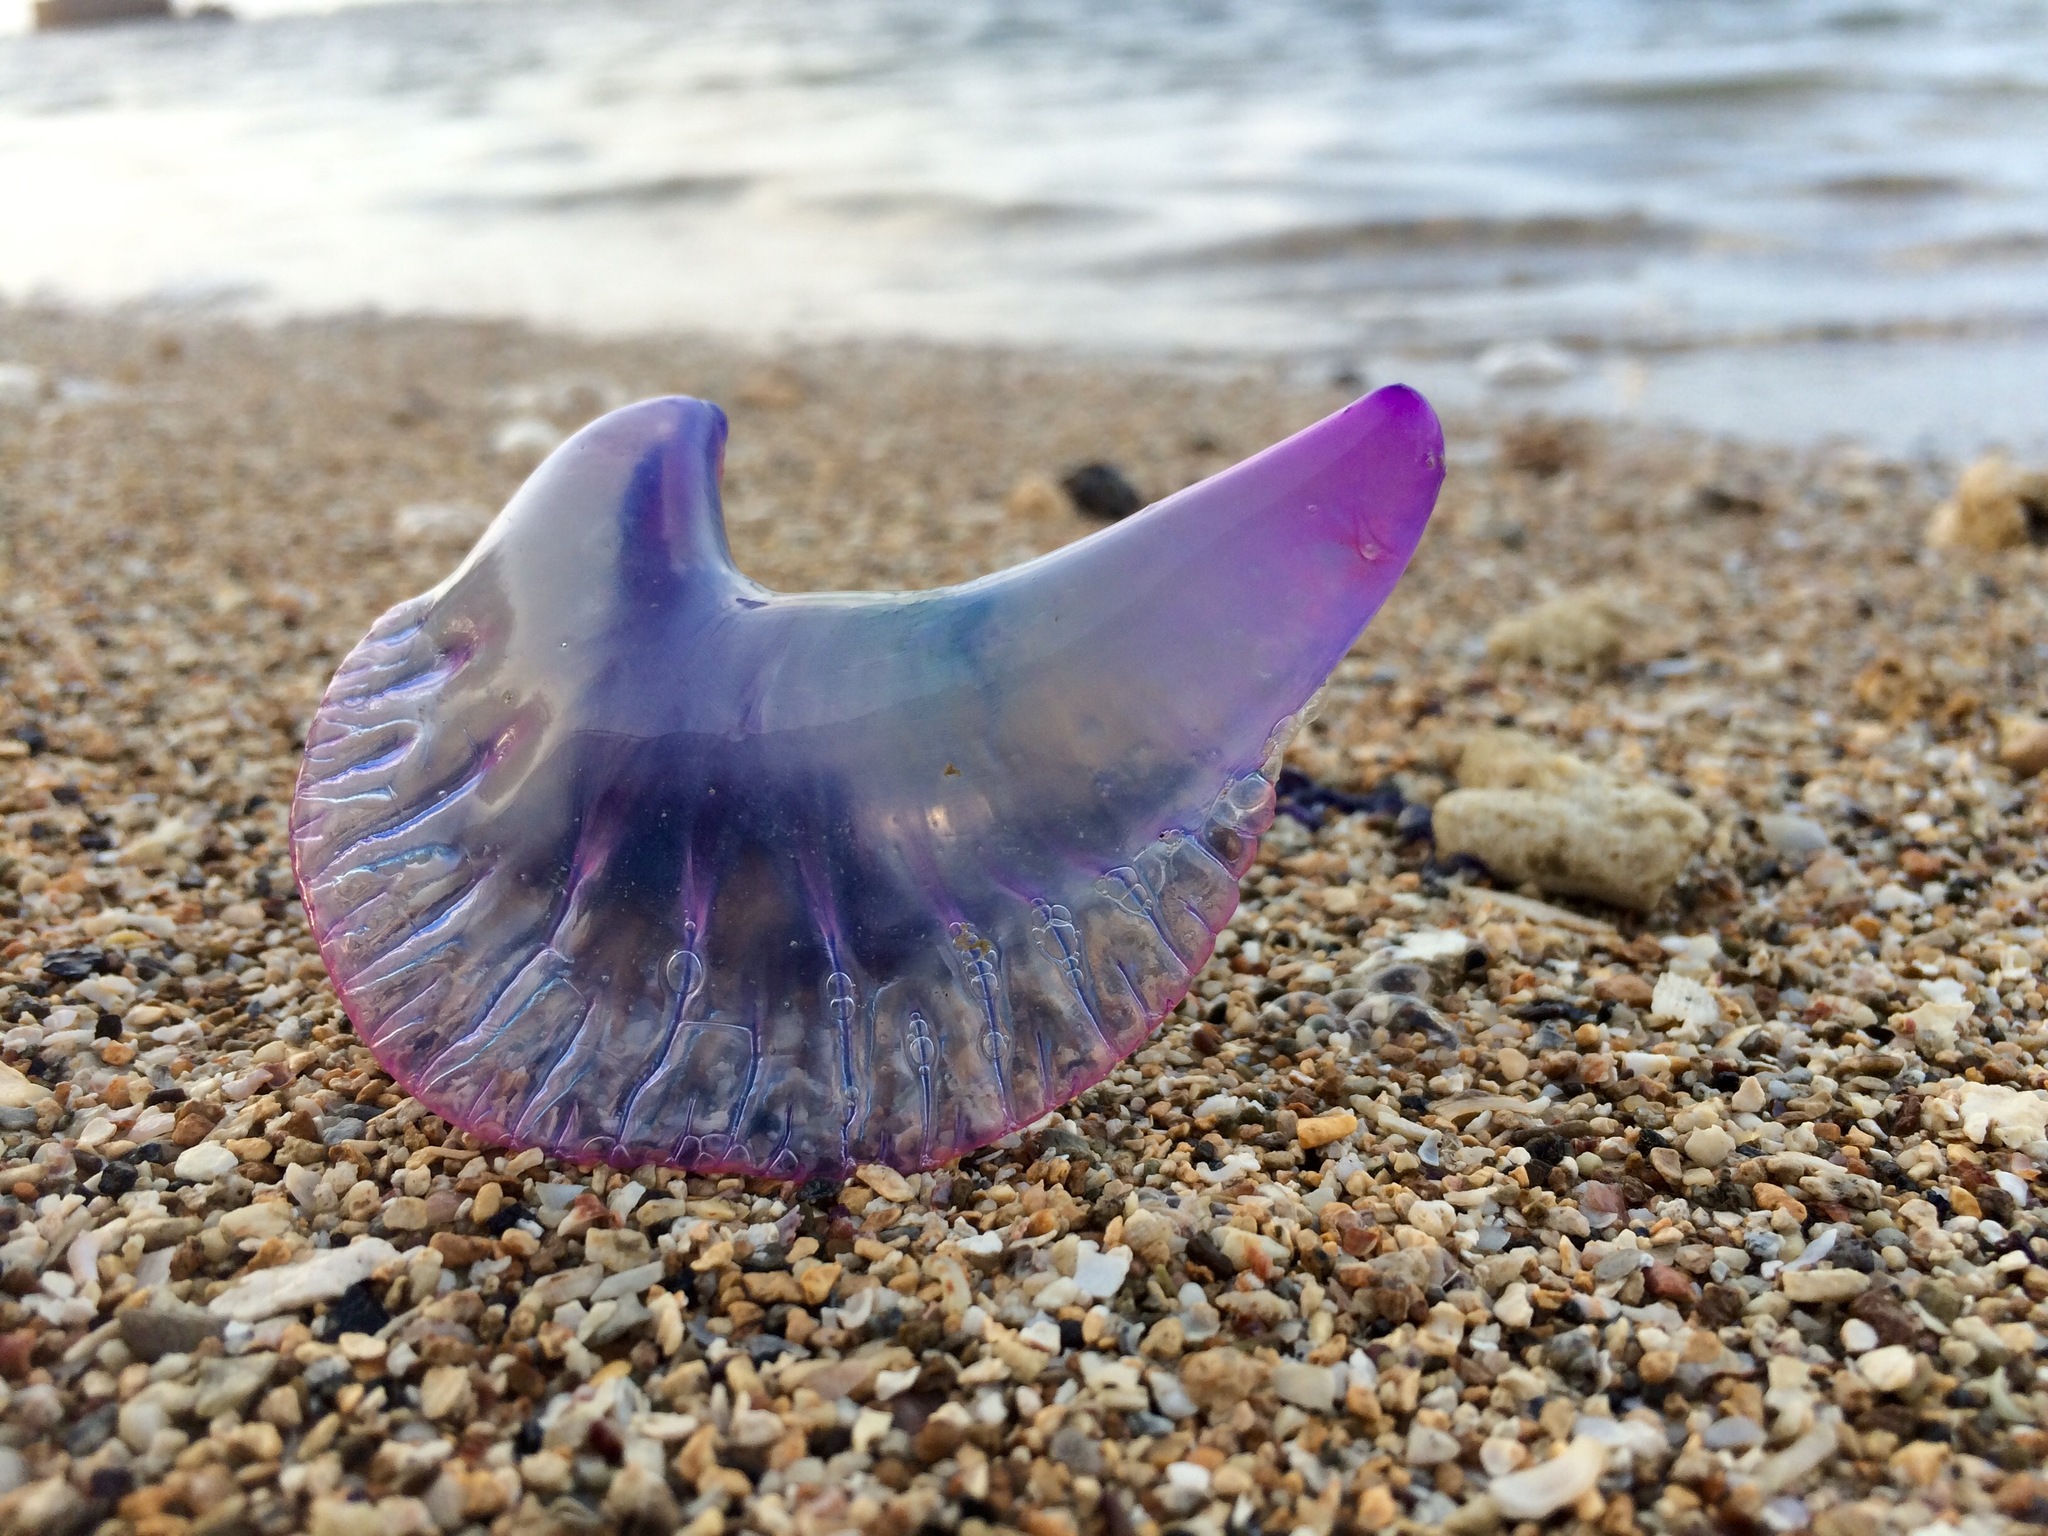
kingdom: Animalia
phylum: Cnidaria
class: Hydrozoa
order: Siphonophorae
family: Physaliidae
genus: Physalia
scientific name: Physalia physalis
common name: Portuguese man-of-war
